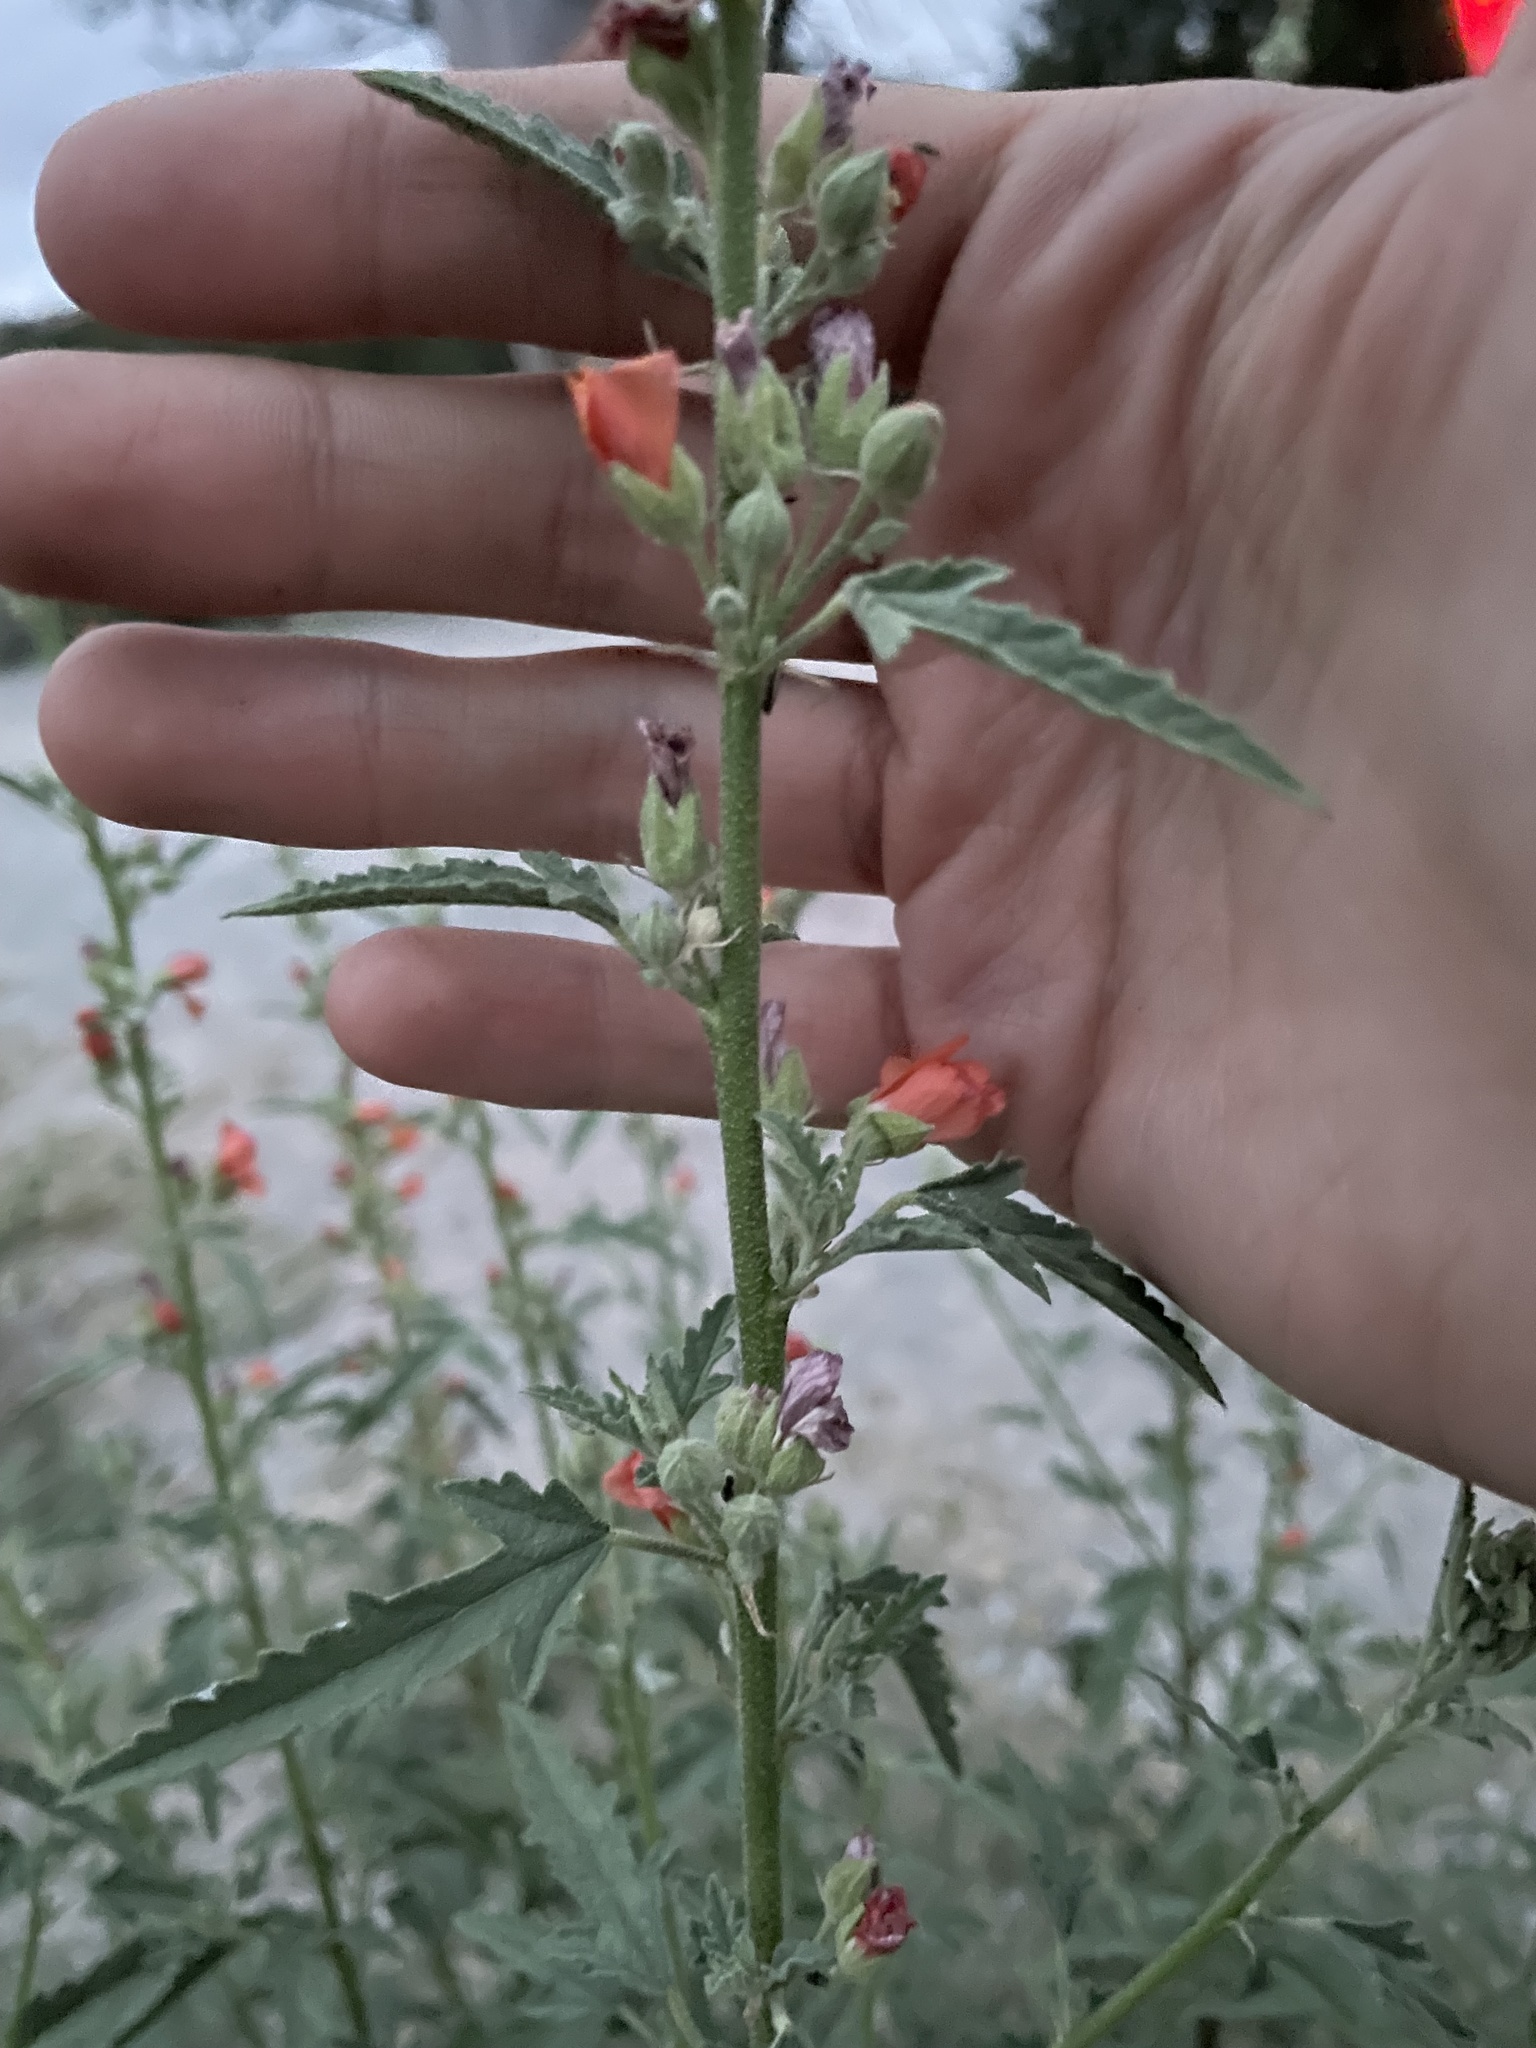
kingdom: Plantae
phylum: Tracheophyta
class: Magnoliopsida
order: Malvales
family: Malvaceae
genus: Sphaeralcea
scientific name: Sphaeralcea angustifolia
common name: Copper globe-mallow
